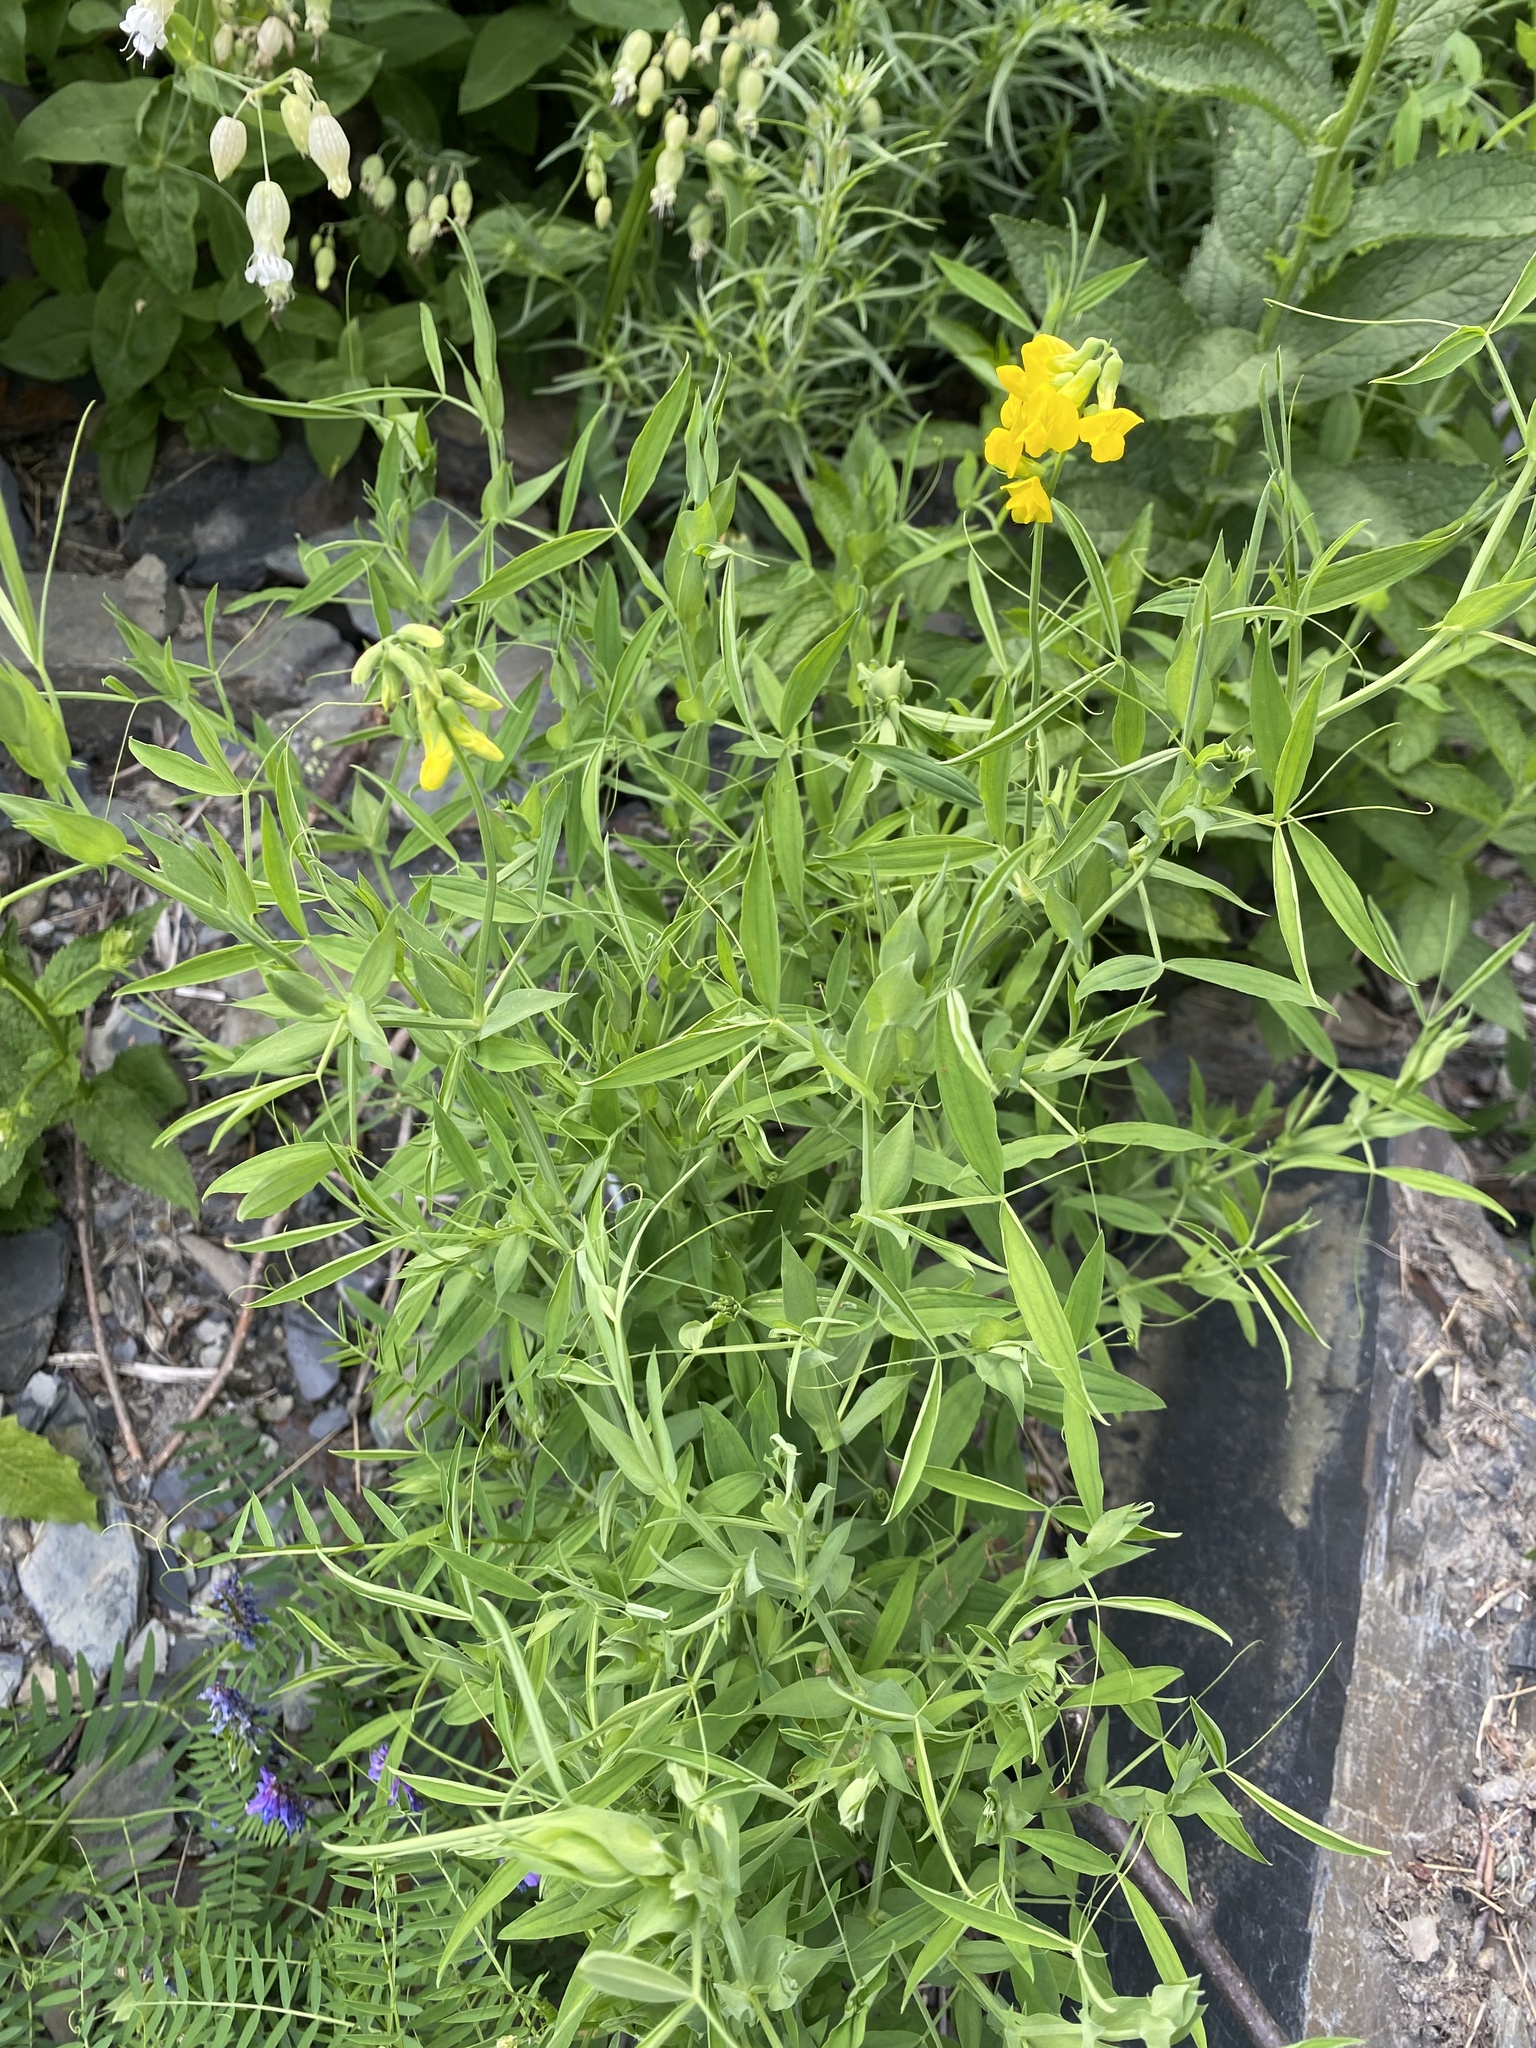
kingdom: Plantae
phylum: Tracheophyta
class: Magnoliopsida
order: Fabales
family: Fabaceae
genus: Lathyrus
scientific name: Lathyrus pratensis
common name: Meadow vetchling
